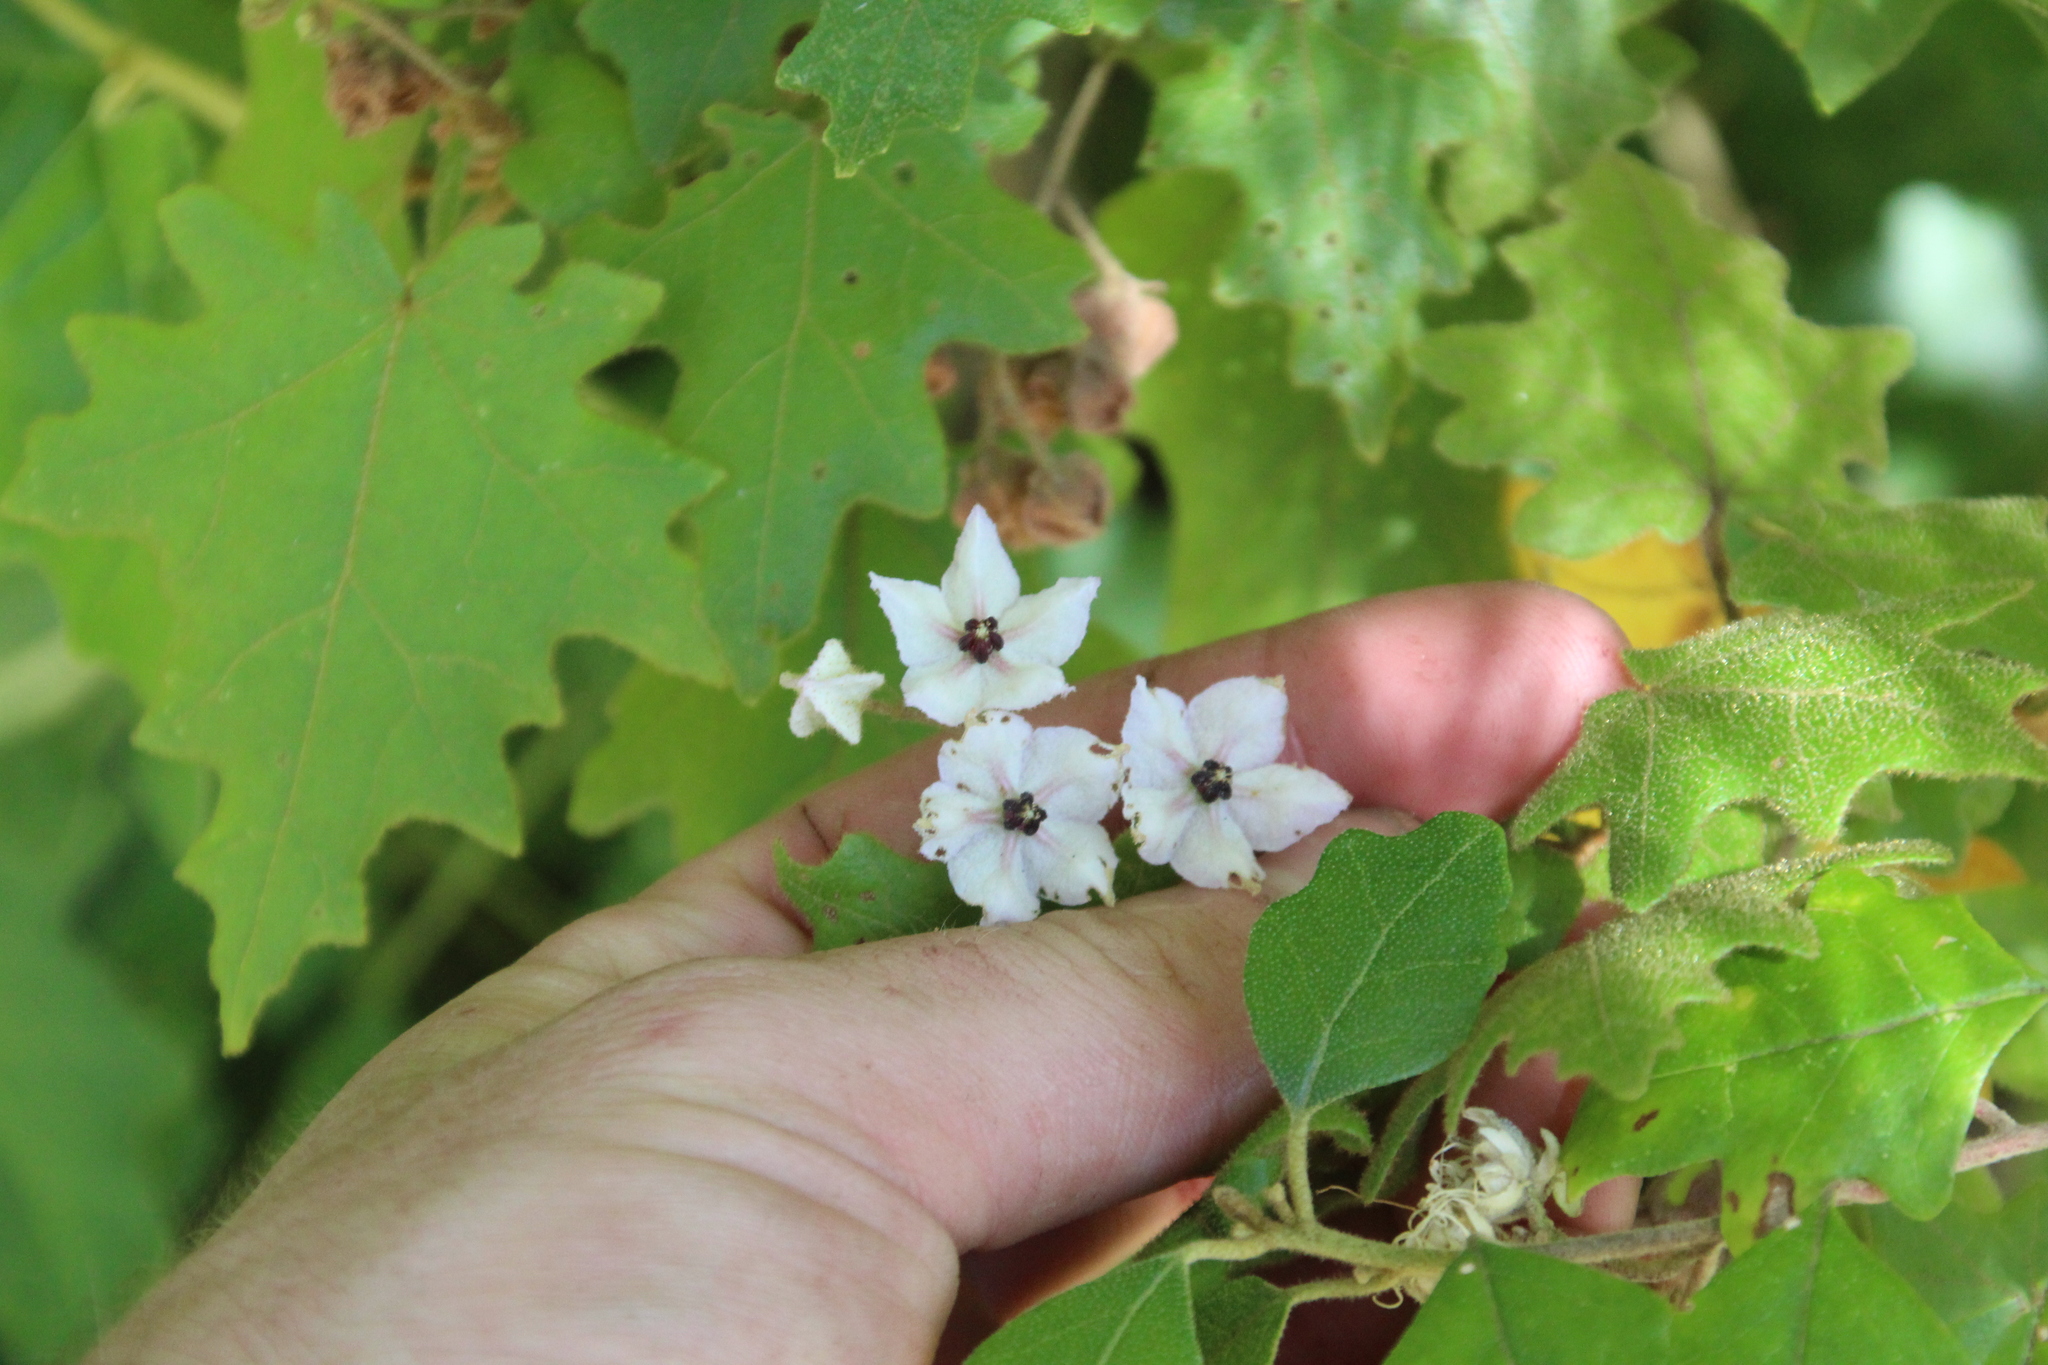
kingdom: Plantae
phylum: Tracheophyta
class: Magnoliopsida
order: Malvales
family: Malvaceae
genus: Thomasia
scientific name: Thomasia solanacea
